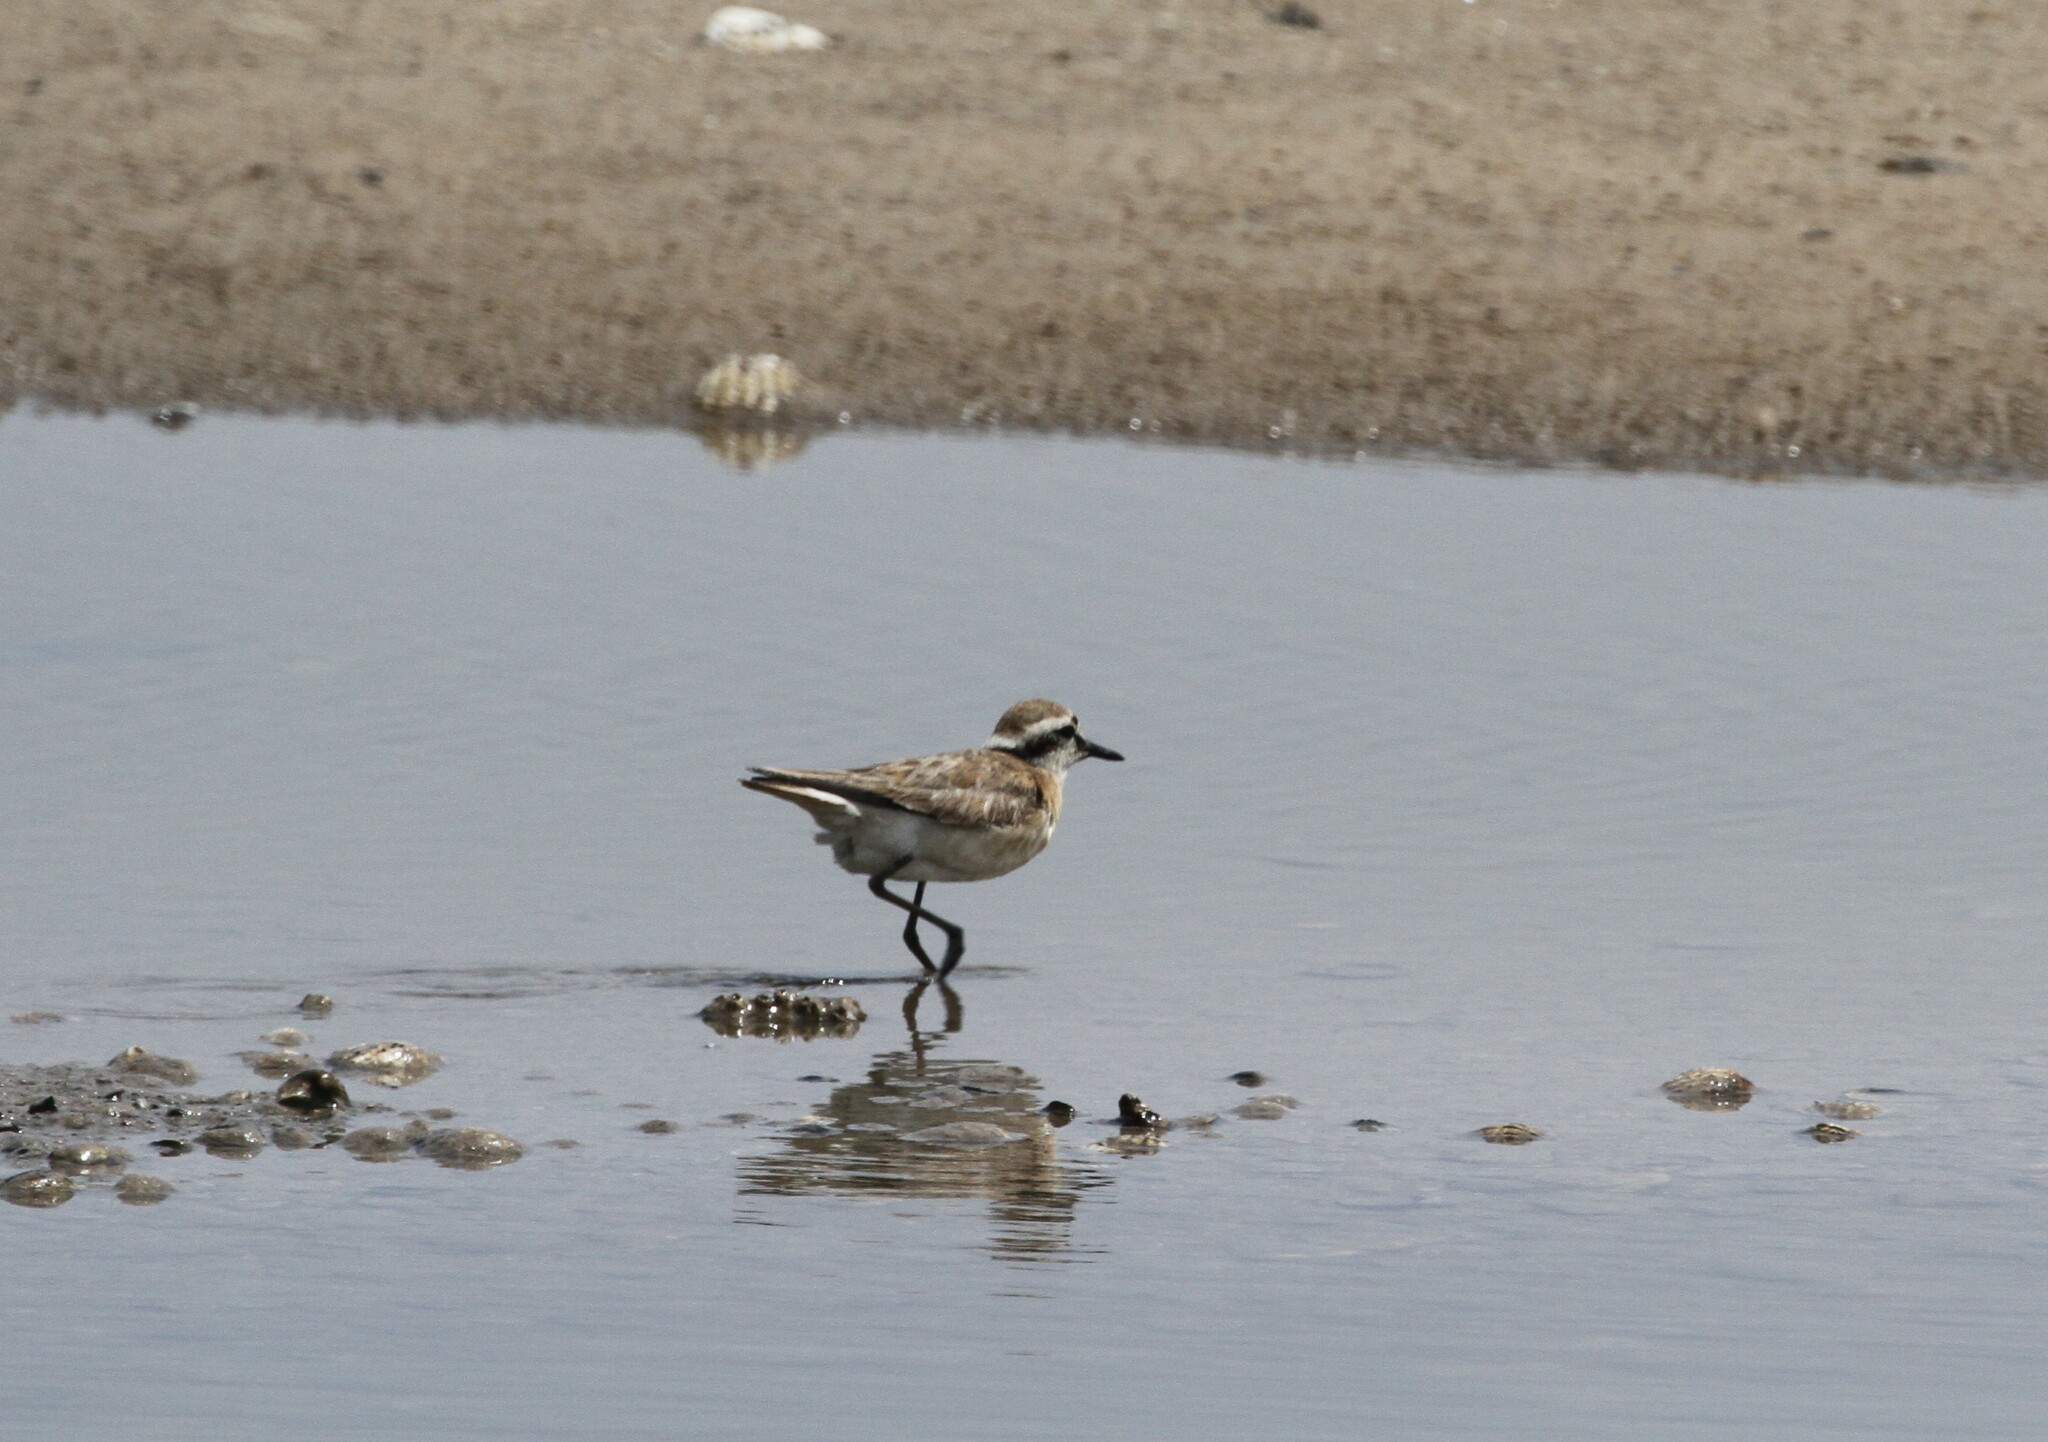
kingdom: Animalia
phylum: Chordata
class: Aves
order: Charadriiformes
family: Charadriidae
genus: Anarhynchus
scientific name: Anarhynchus
